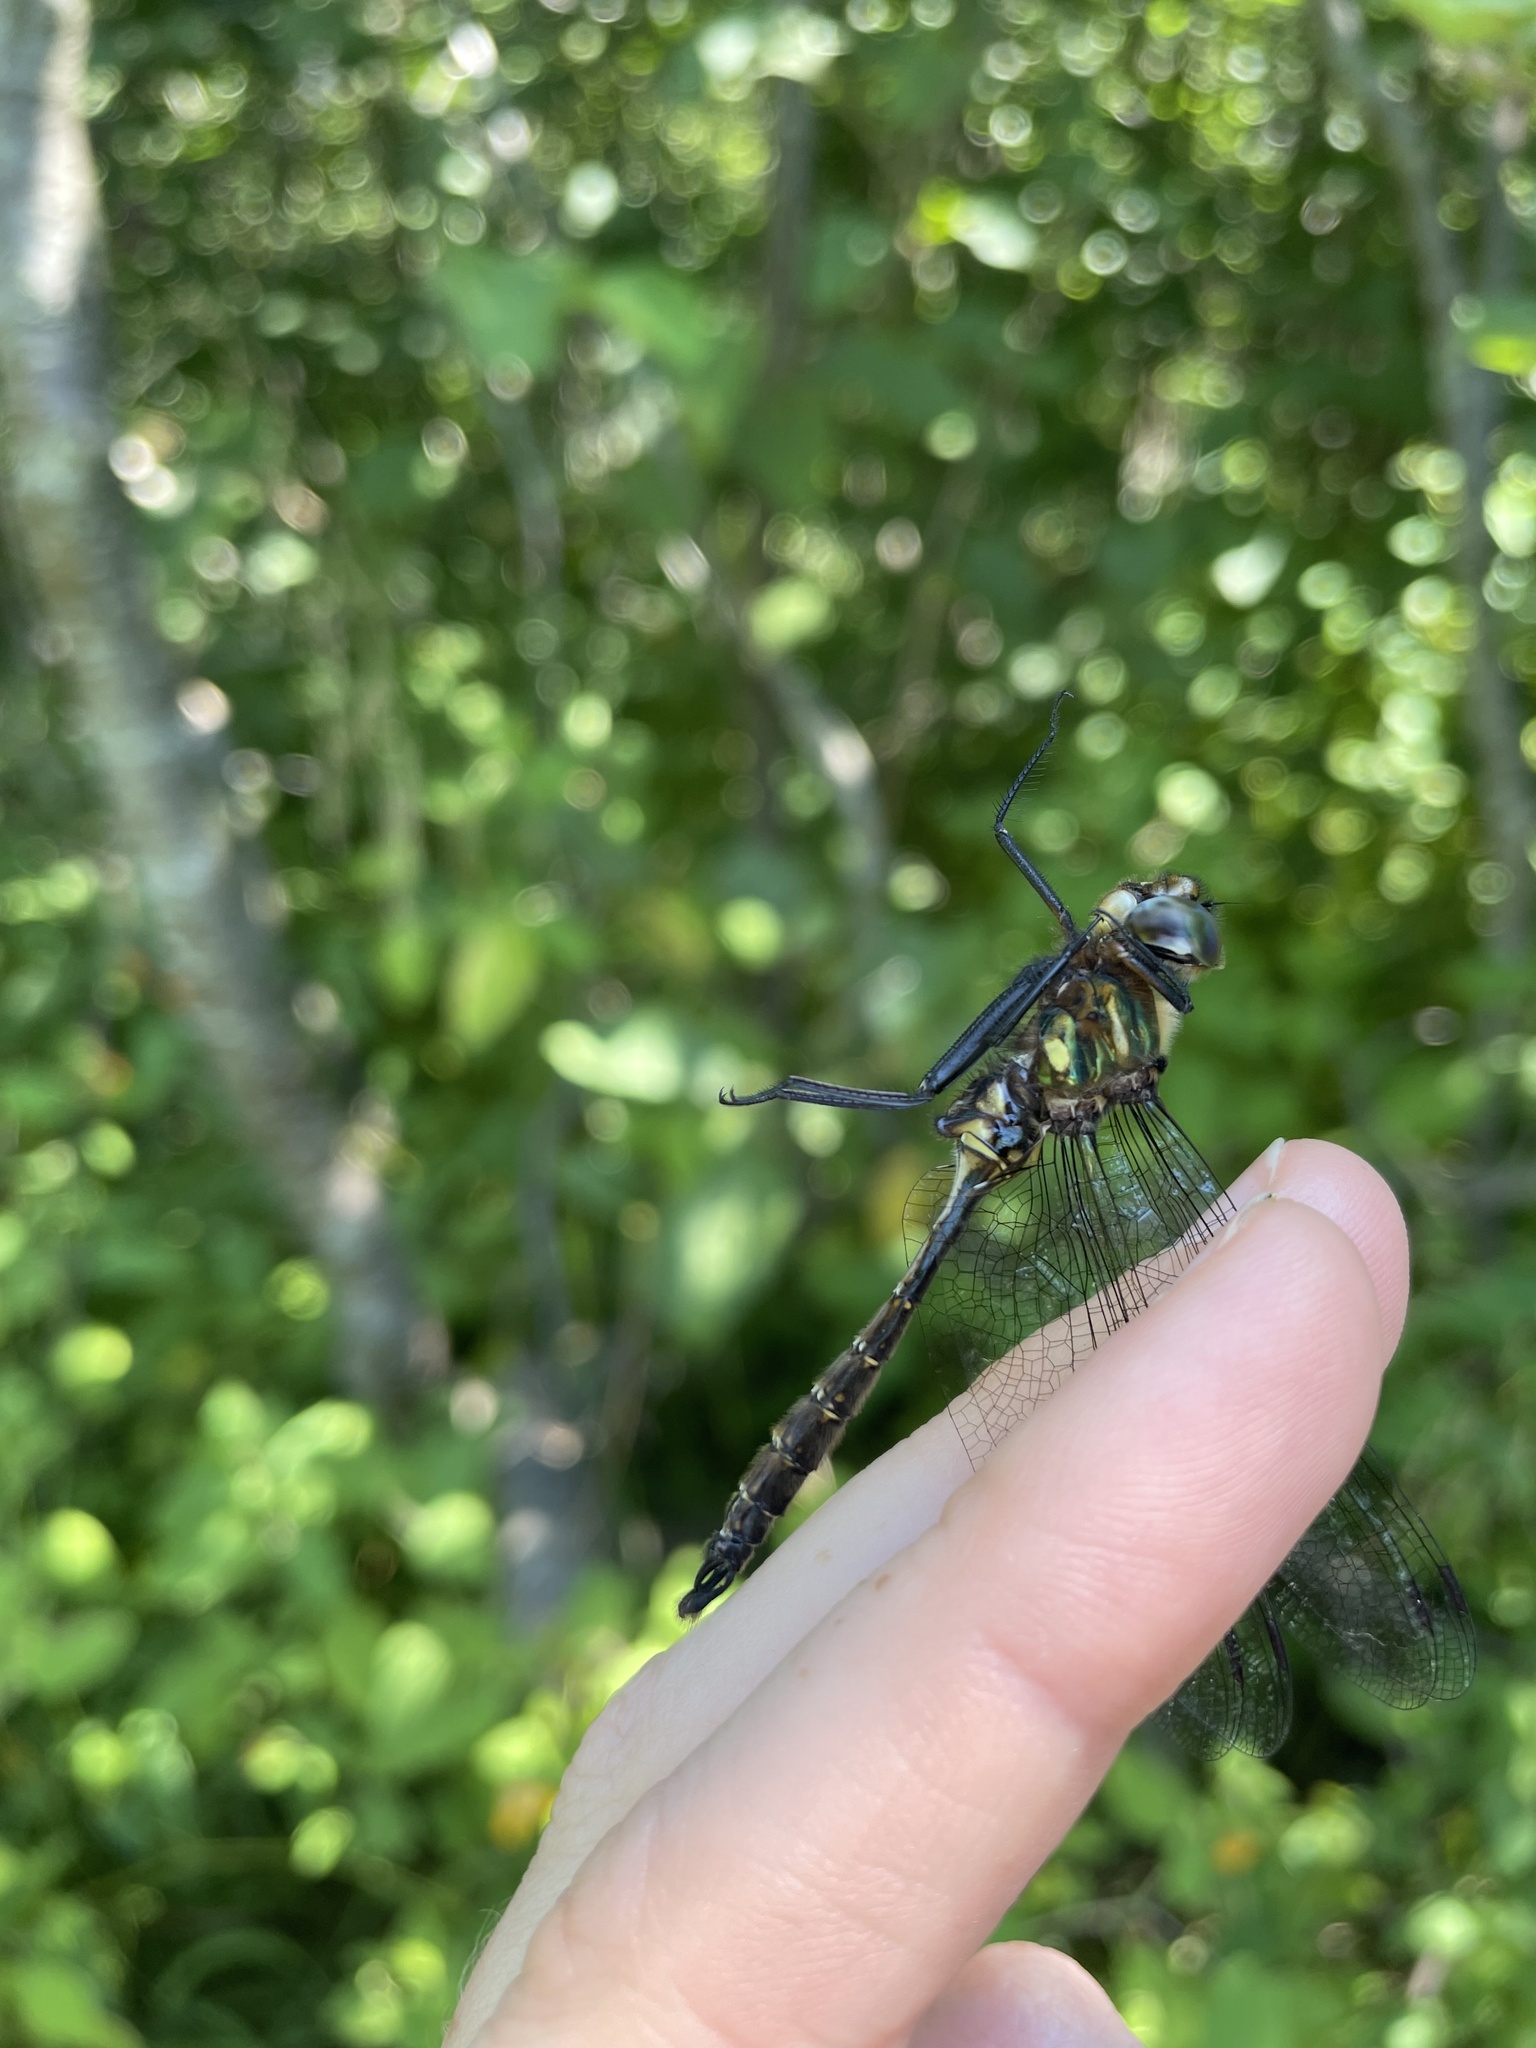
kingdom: Animalia
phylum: Arthropoda
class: Insecta
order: Odonata
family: Corduliidae
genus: Somatochlora
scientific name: Somatochlora walshii
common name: Brush-tipped emerald
